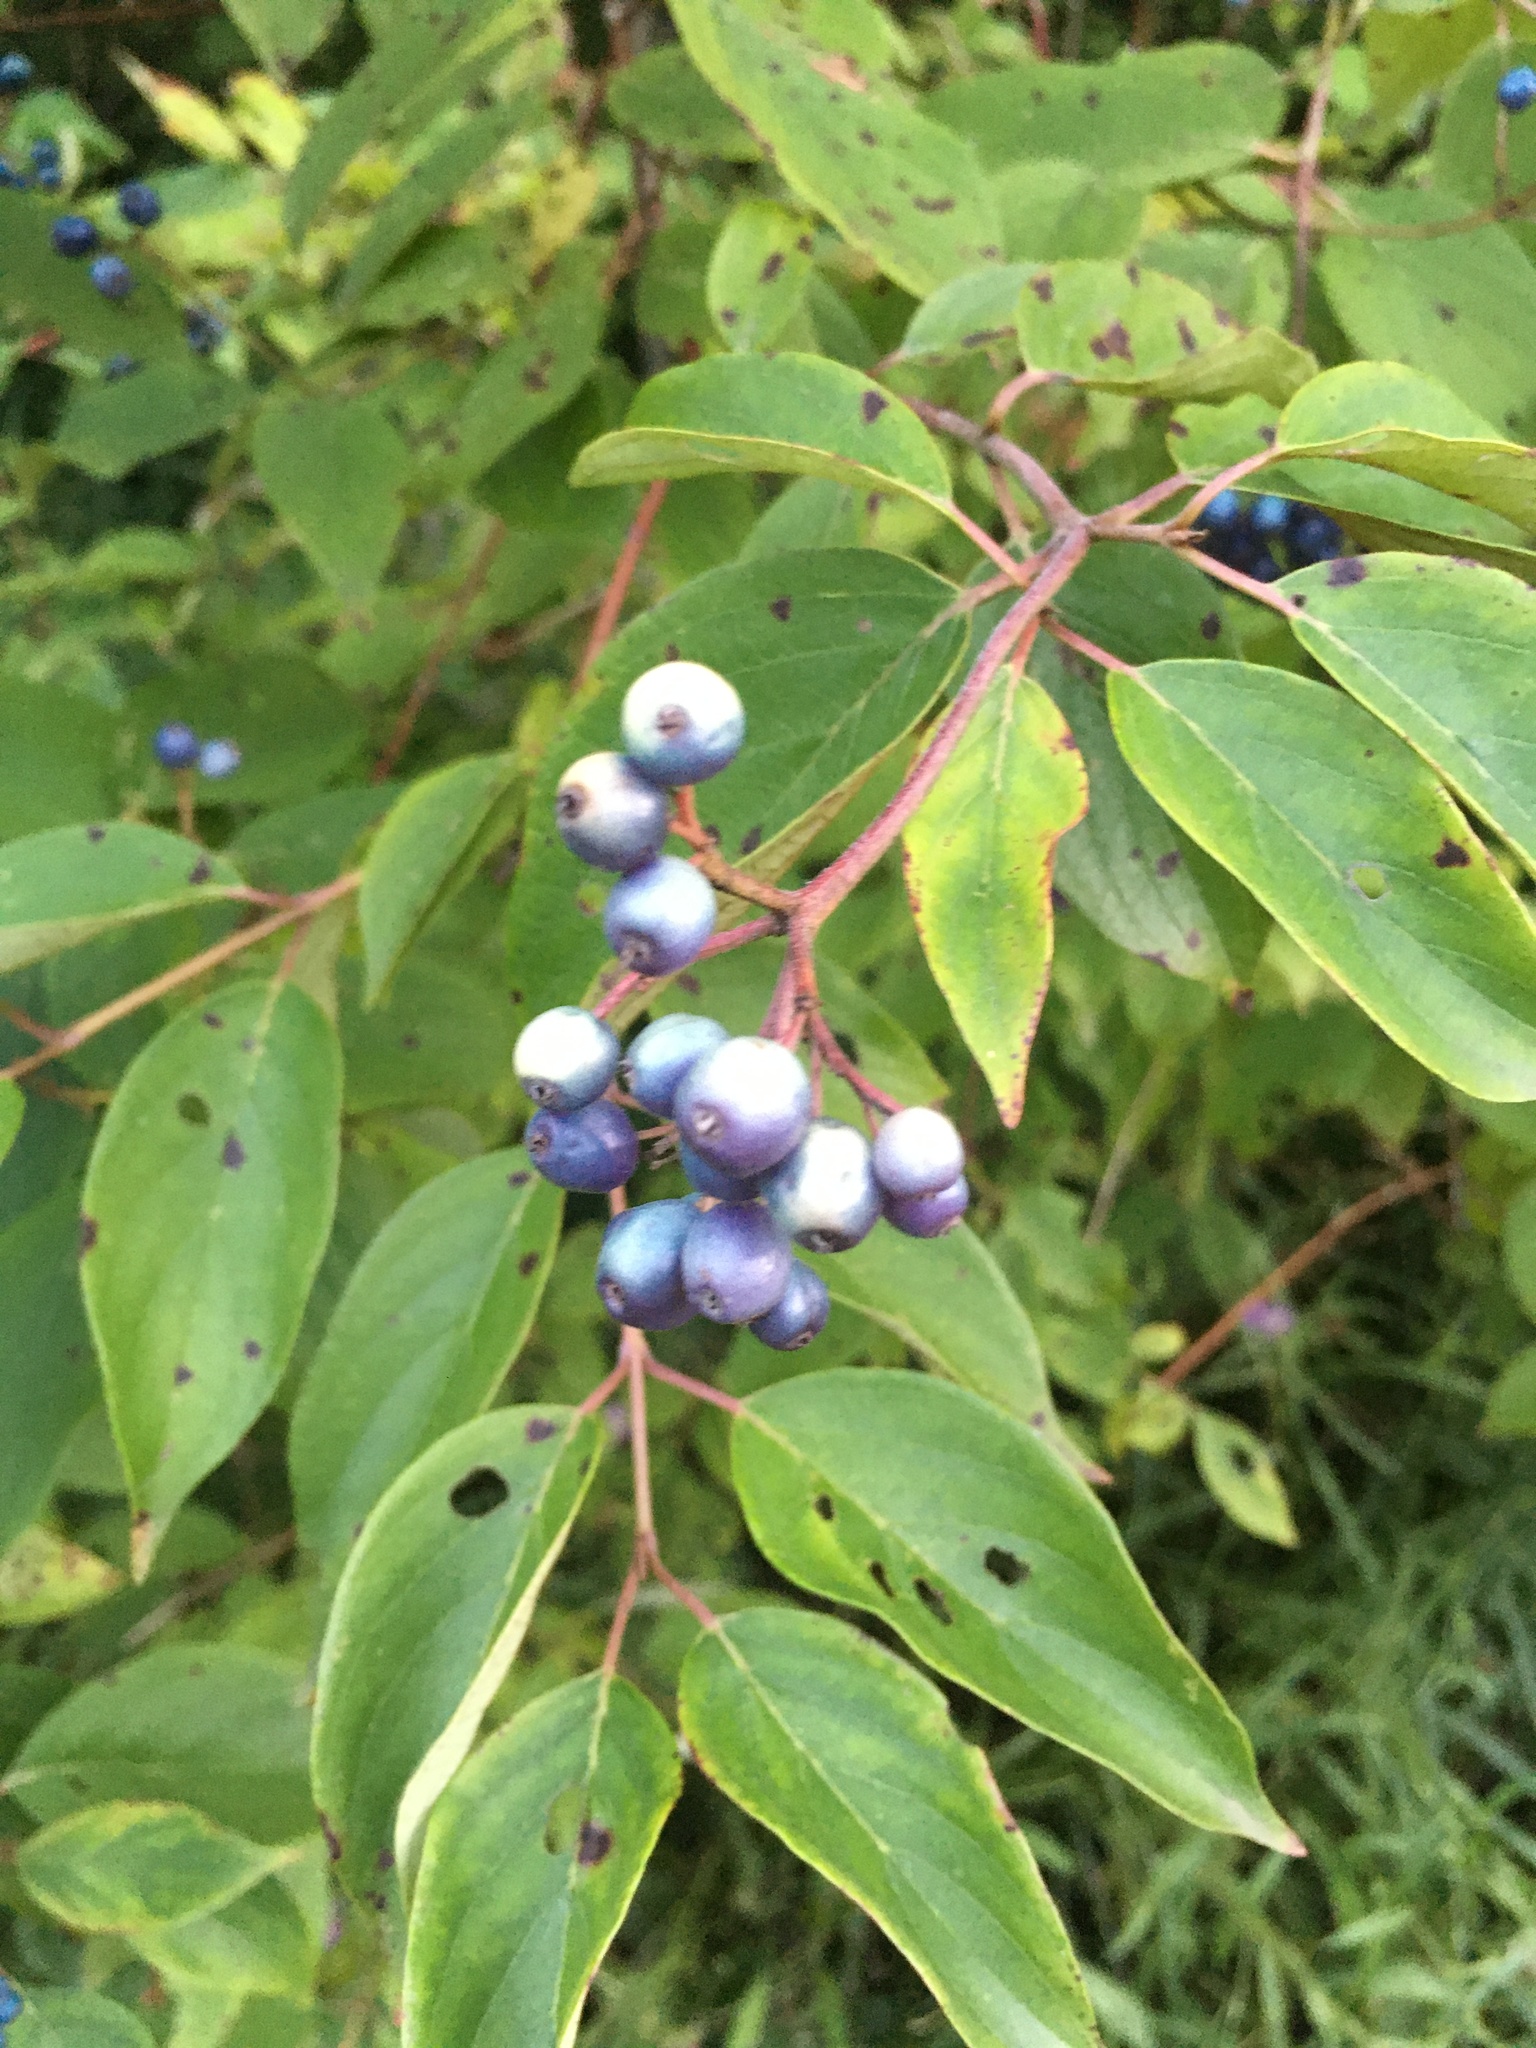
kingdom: Plantae
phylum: Tracheophyta
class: Magnoliopsida
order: Cornales
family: Cornaceae
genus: Cornus
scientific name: Cornus amomum
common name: Silky dogwood
